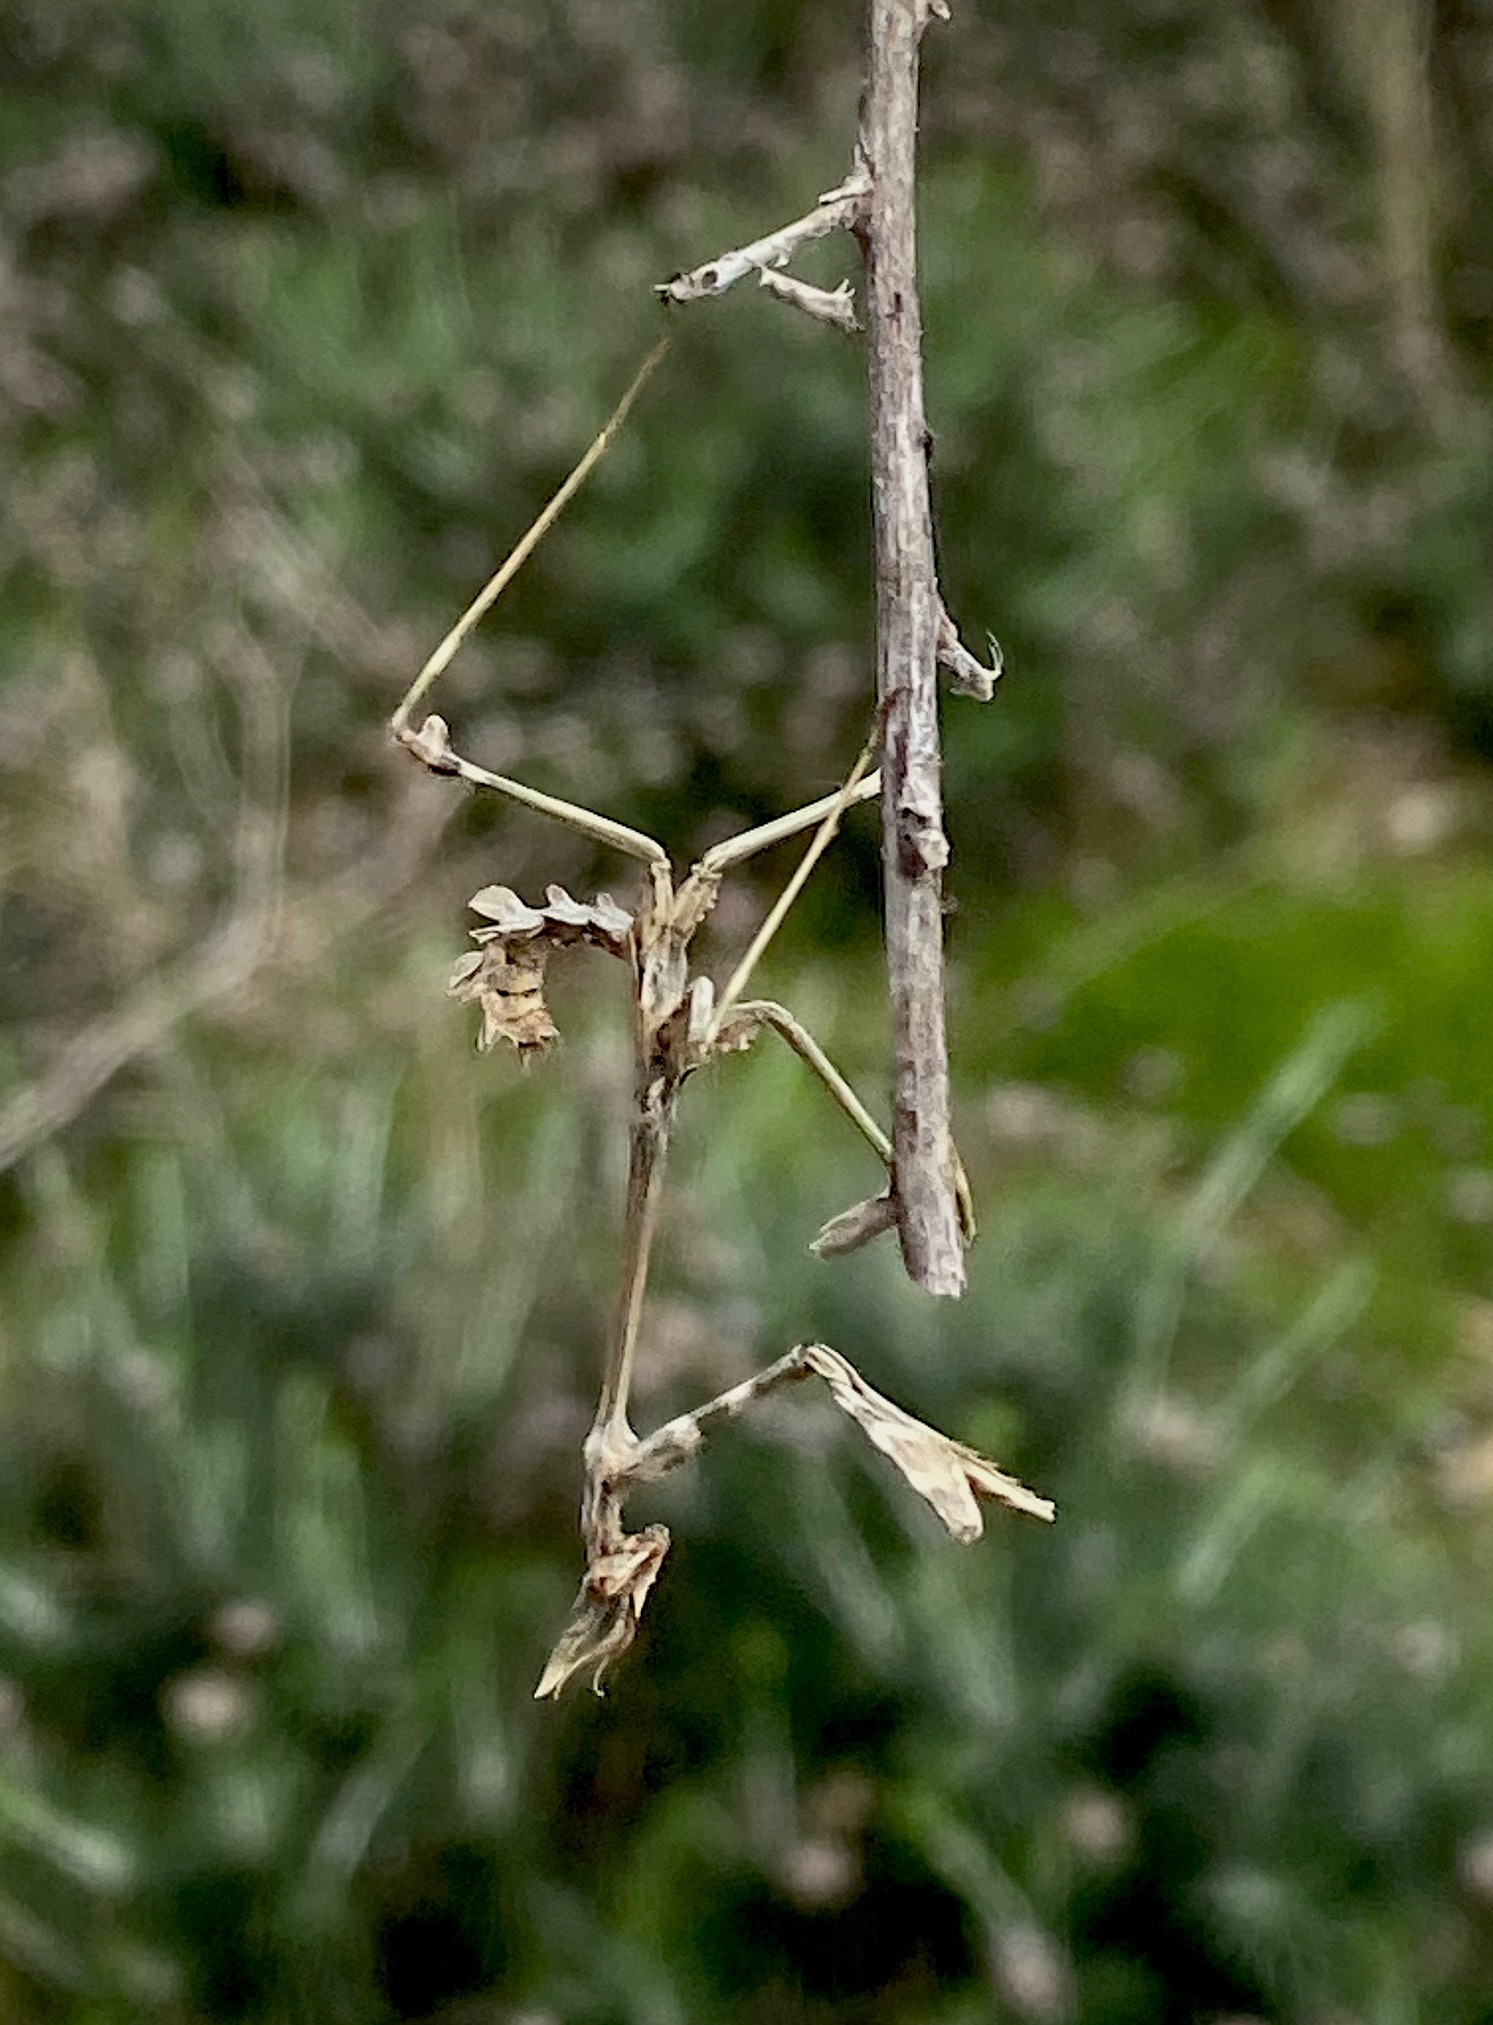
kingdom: Animalia
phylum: Arthropoda
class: Insecta
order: Mantodea
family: Empusidae
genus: Empusa
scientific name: Empusa fasciata
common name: Devil's mare
